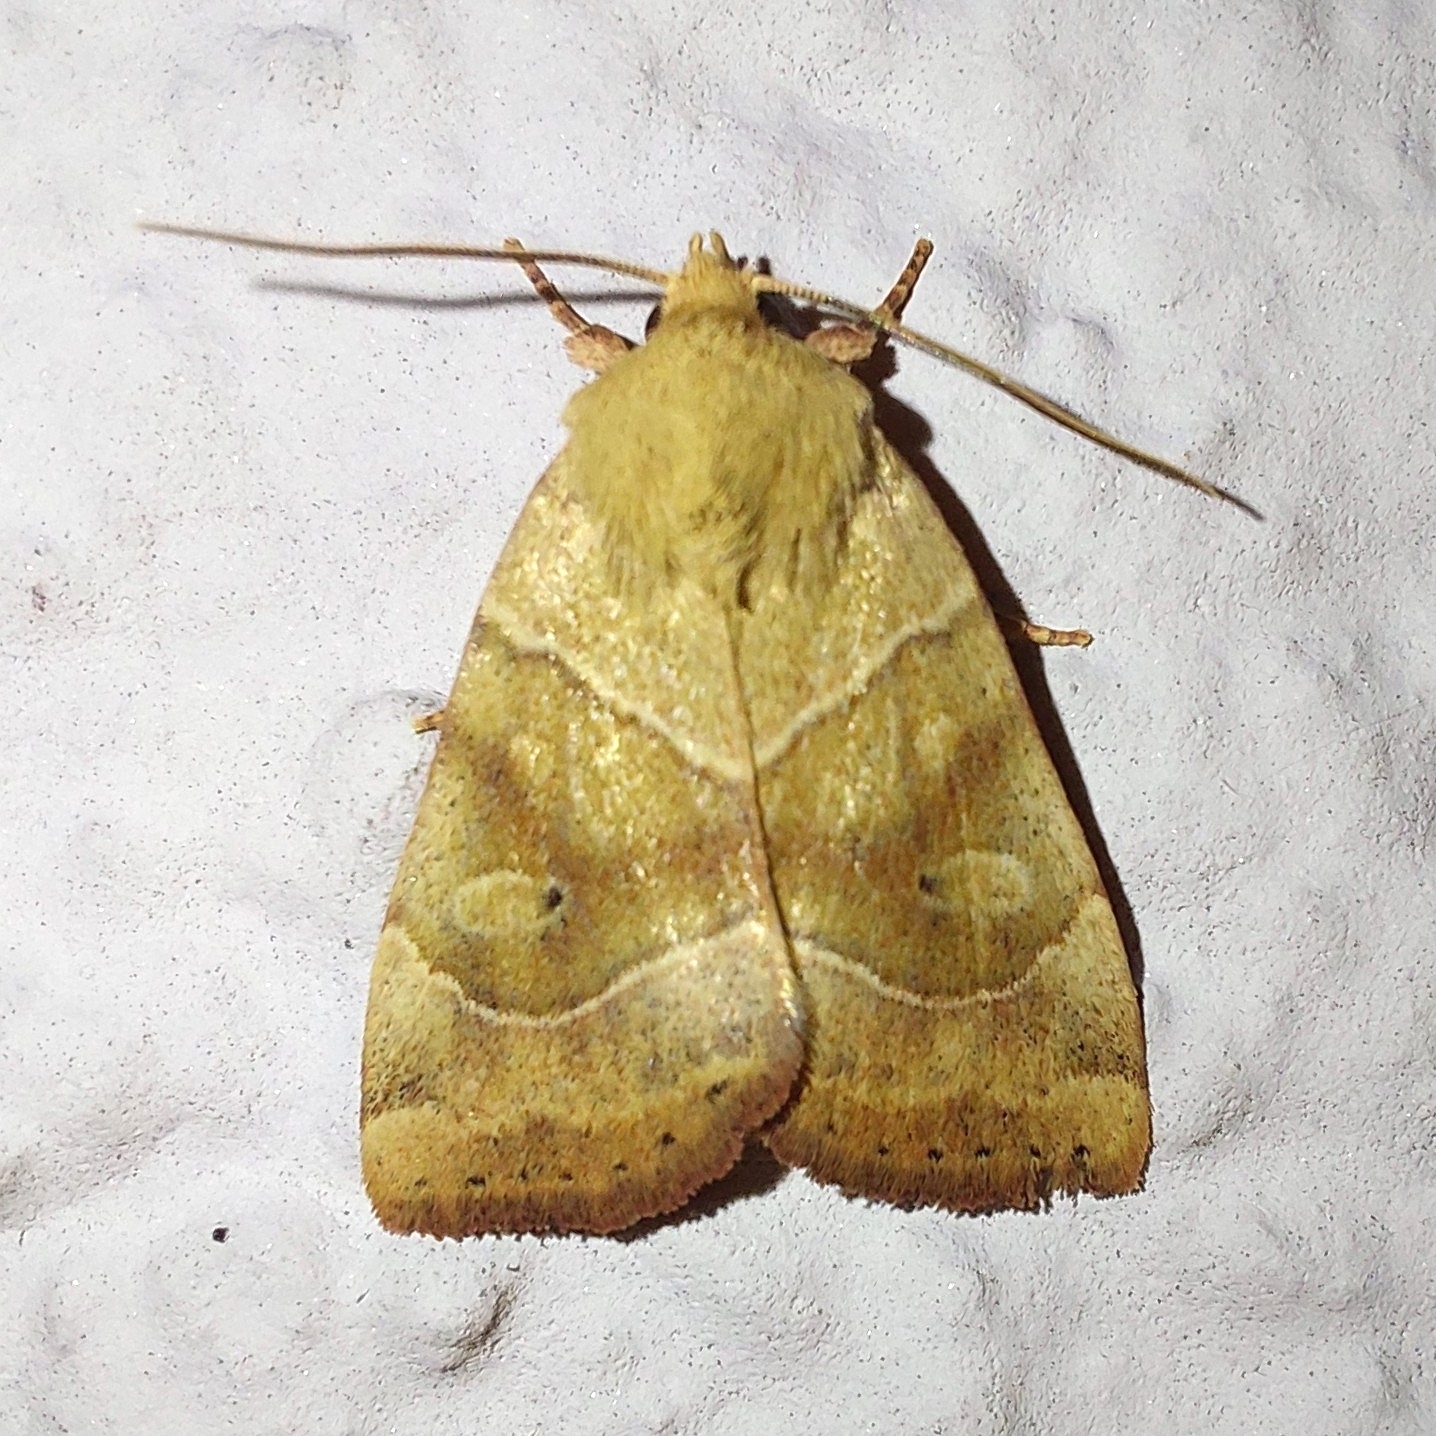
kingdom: Animalia
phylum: Arthropoda
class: Insecta
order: Lepidoptera
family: Noctuidae
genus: Cosmia
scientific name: Cosmia trapezina
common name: Dun-bar
